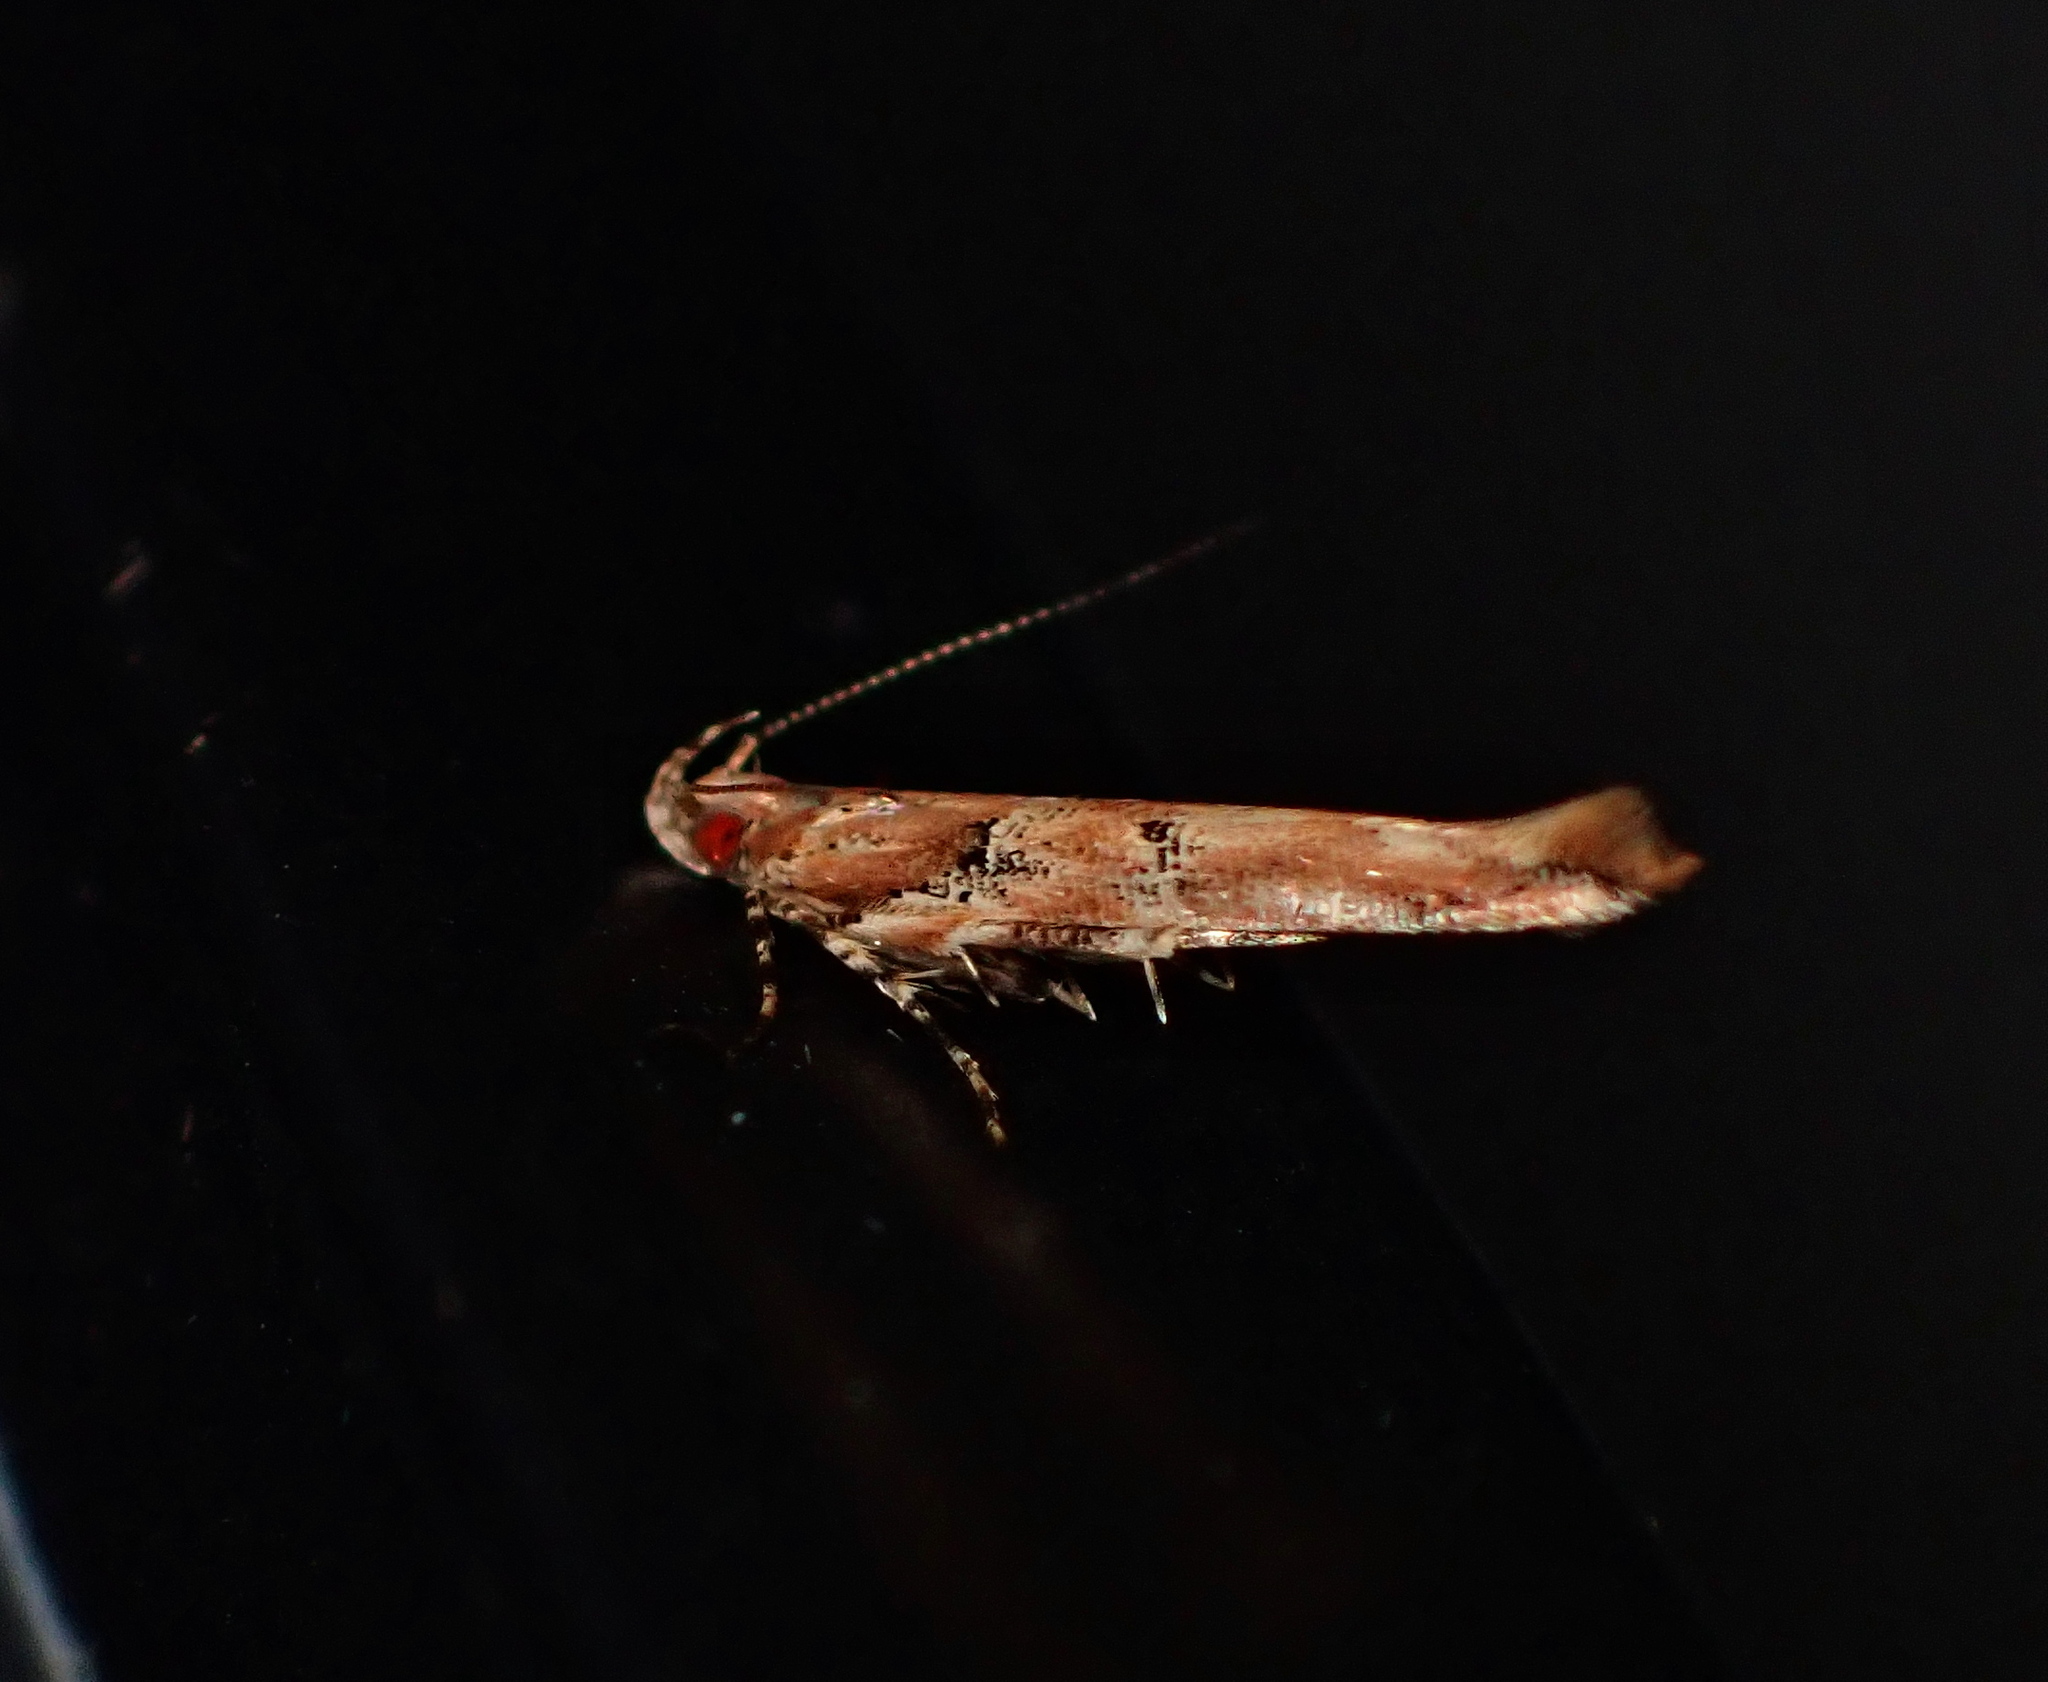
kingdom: Animalia
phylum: Arthropoda
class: Insecta
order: Lepidoptera
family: Cosmopterigidae
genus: Pyroderces
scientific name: Pyroderces aellotricha
